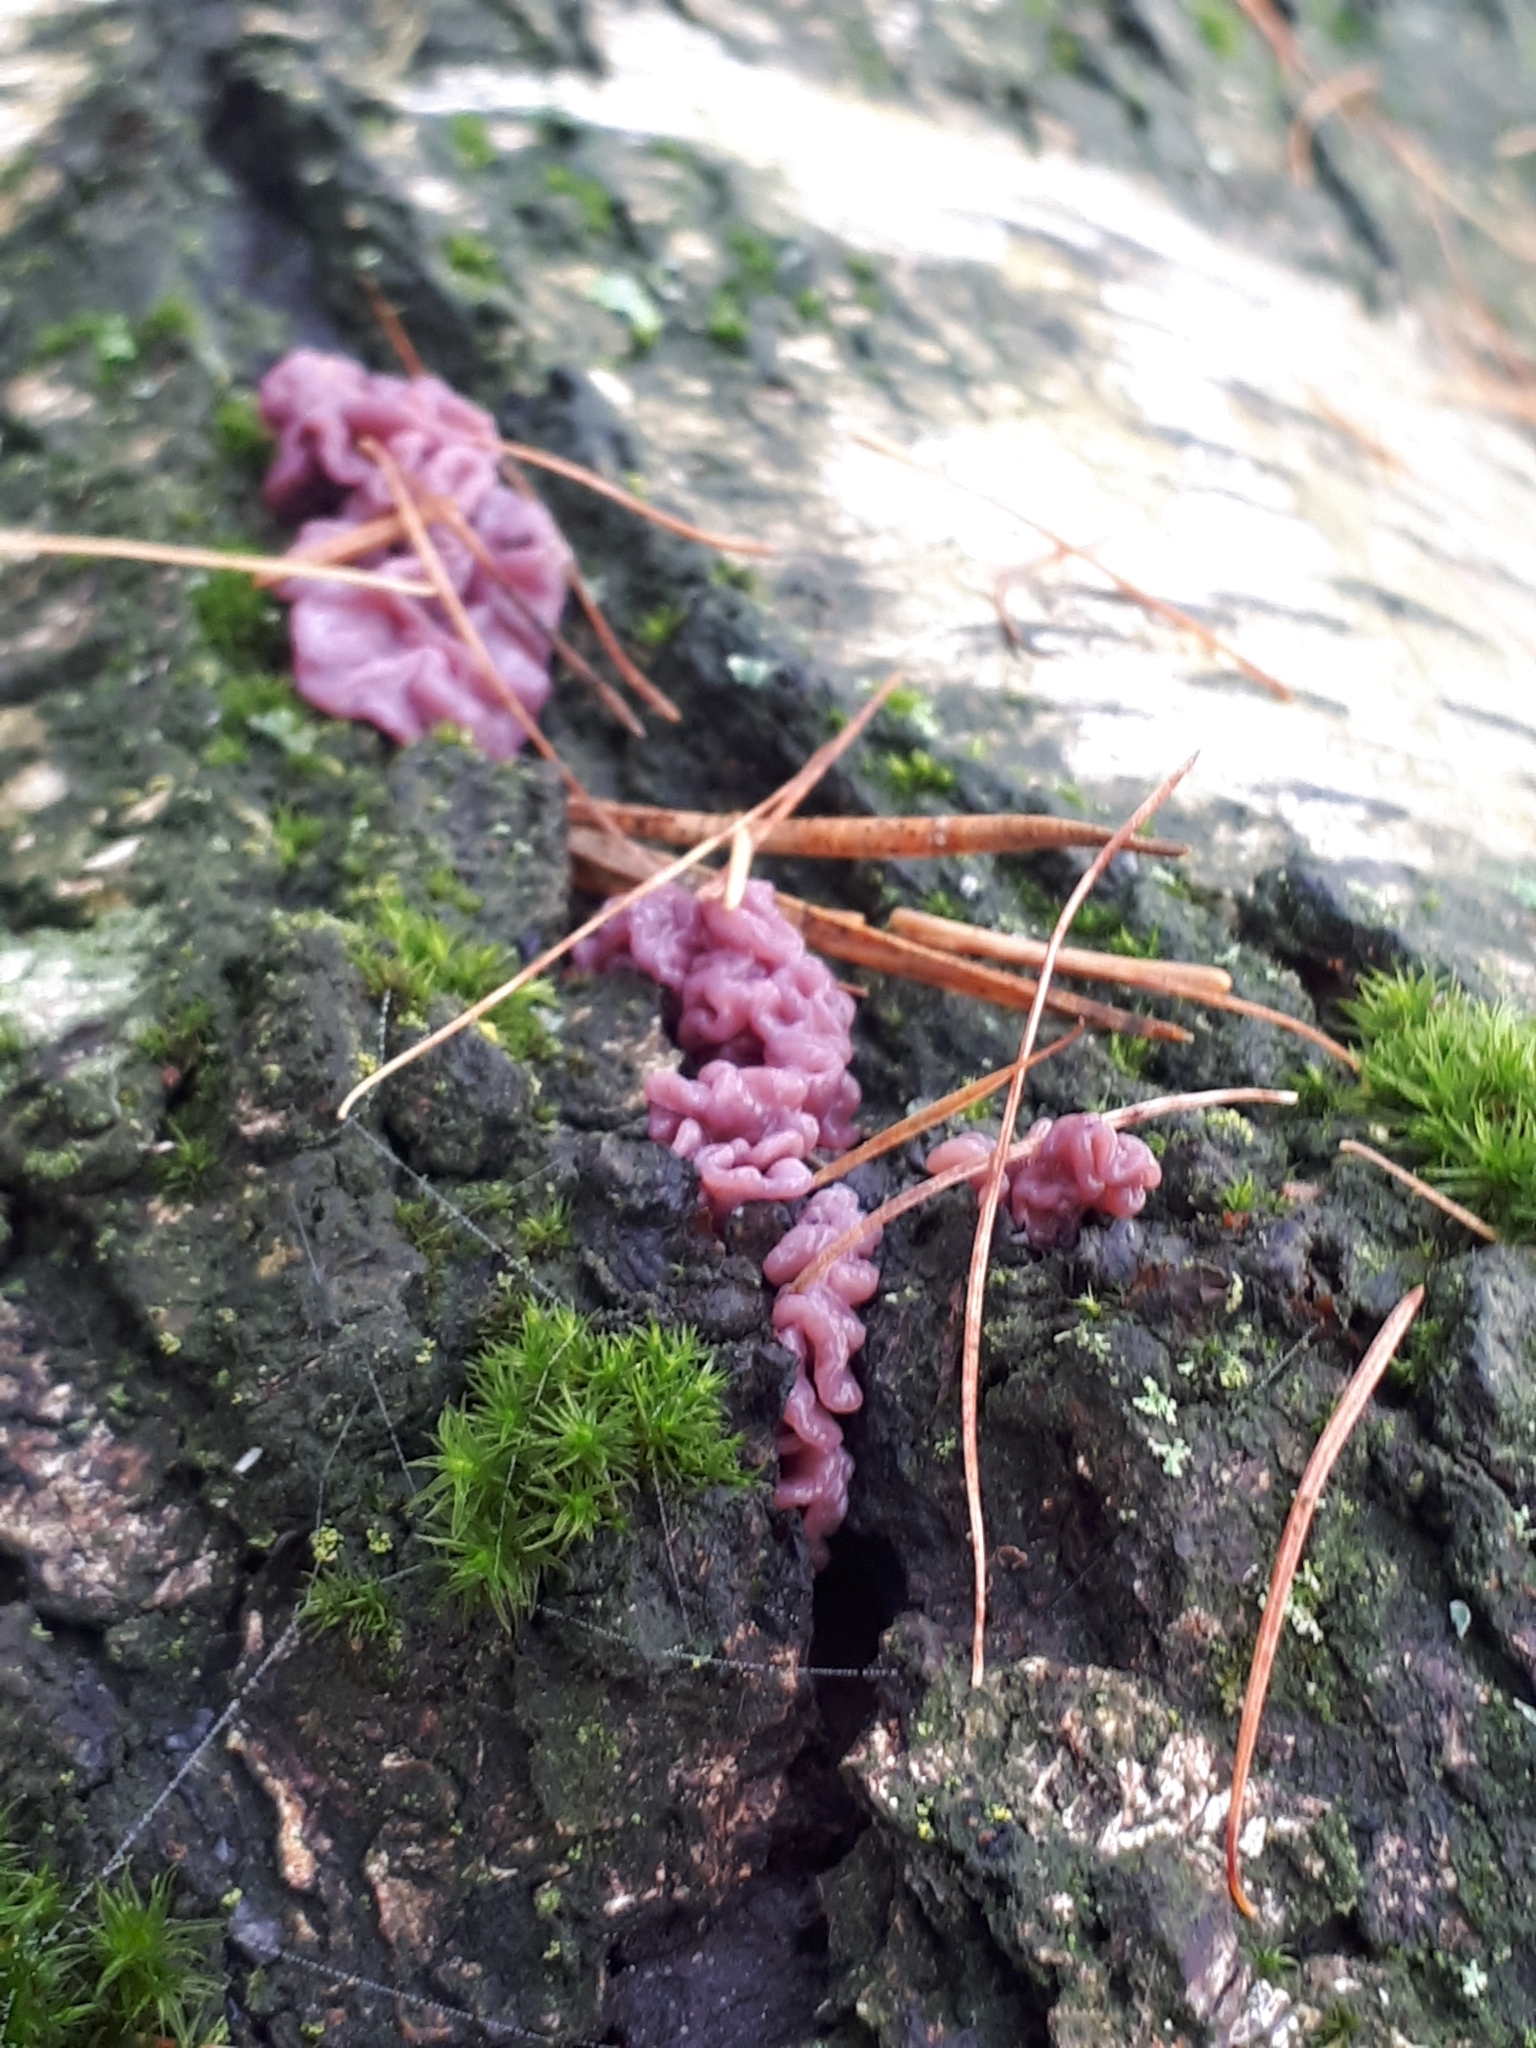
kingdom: Fungi
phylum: Ascomycota
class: Leotiomycetes
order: Helotiales
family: Gelatinodiscaceae
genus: Ascocoryne
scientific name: Ascocoryne sarcoides
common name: Purple jellydisc
